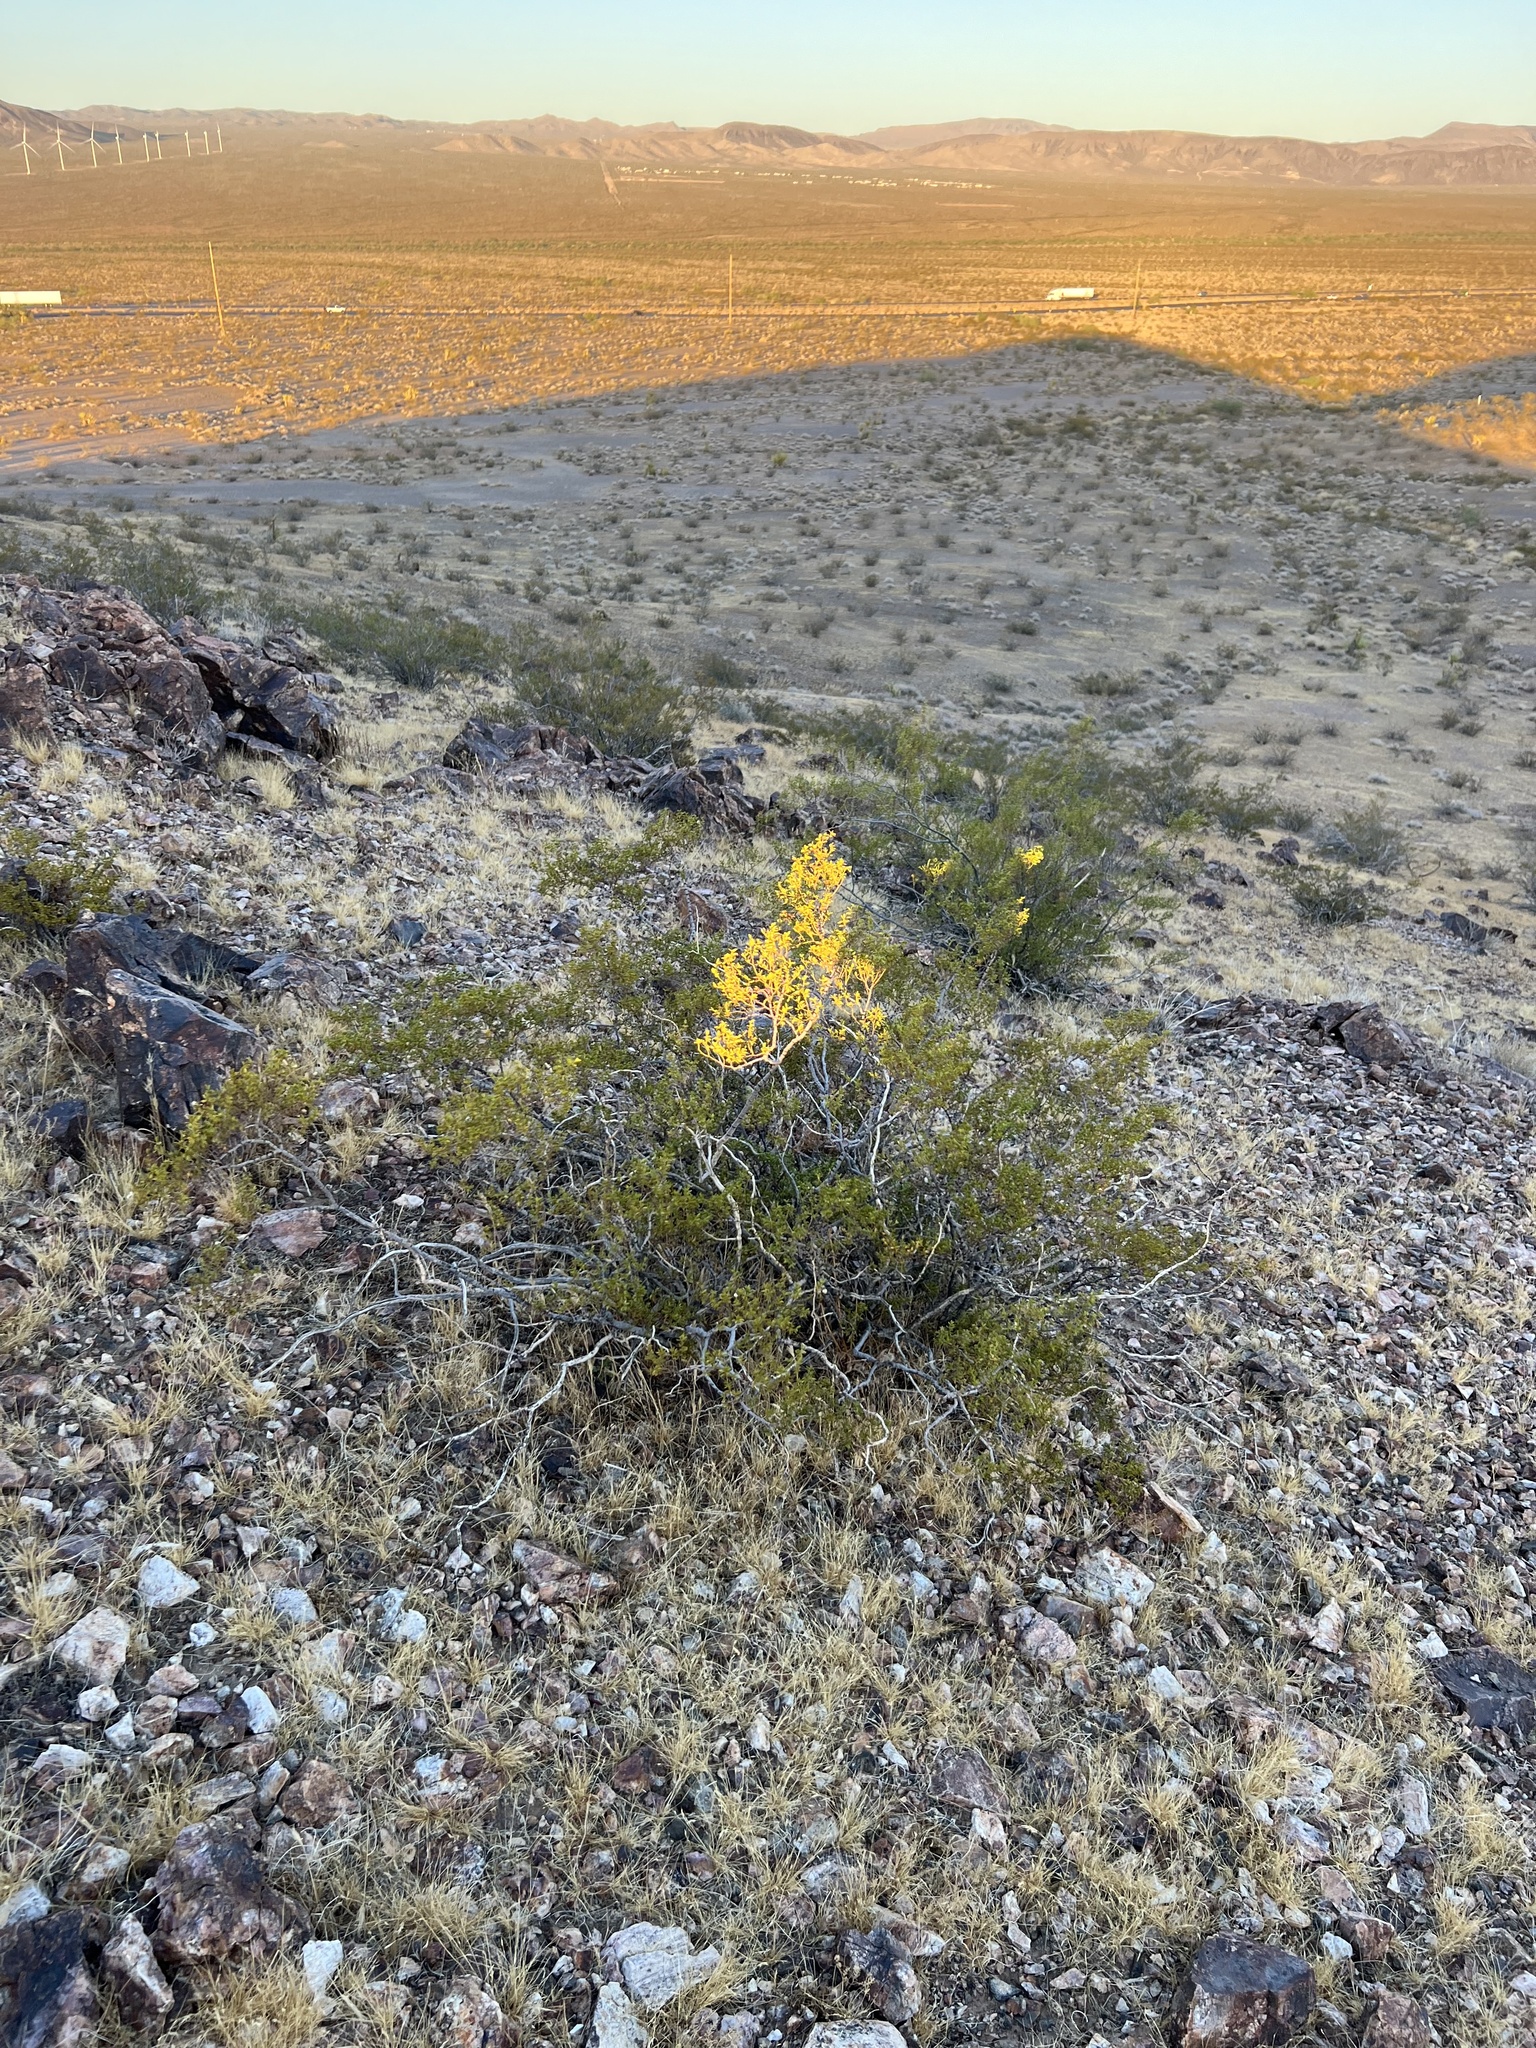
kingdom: Plantae
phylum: Tracheophyta
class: Magnoliopsida
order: Zygophyllales
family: Zygophyllaceae
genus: Larrea
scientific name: Larrea tridentata
